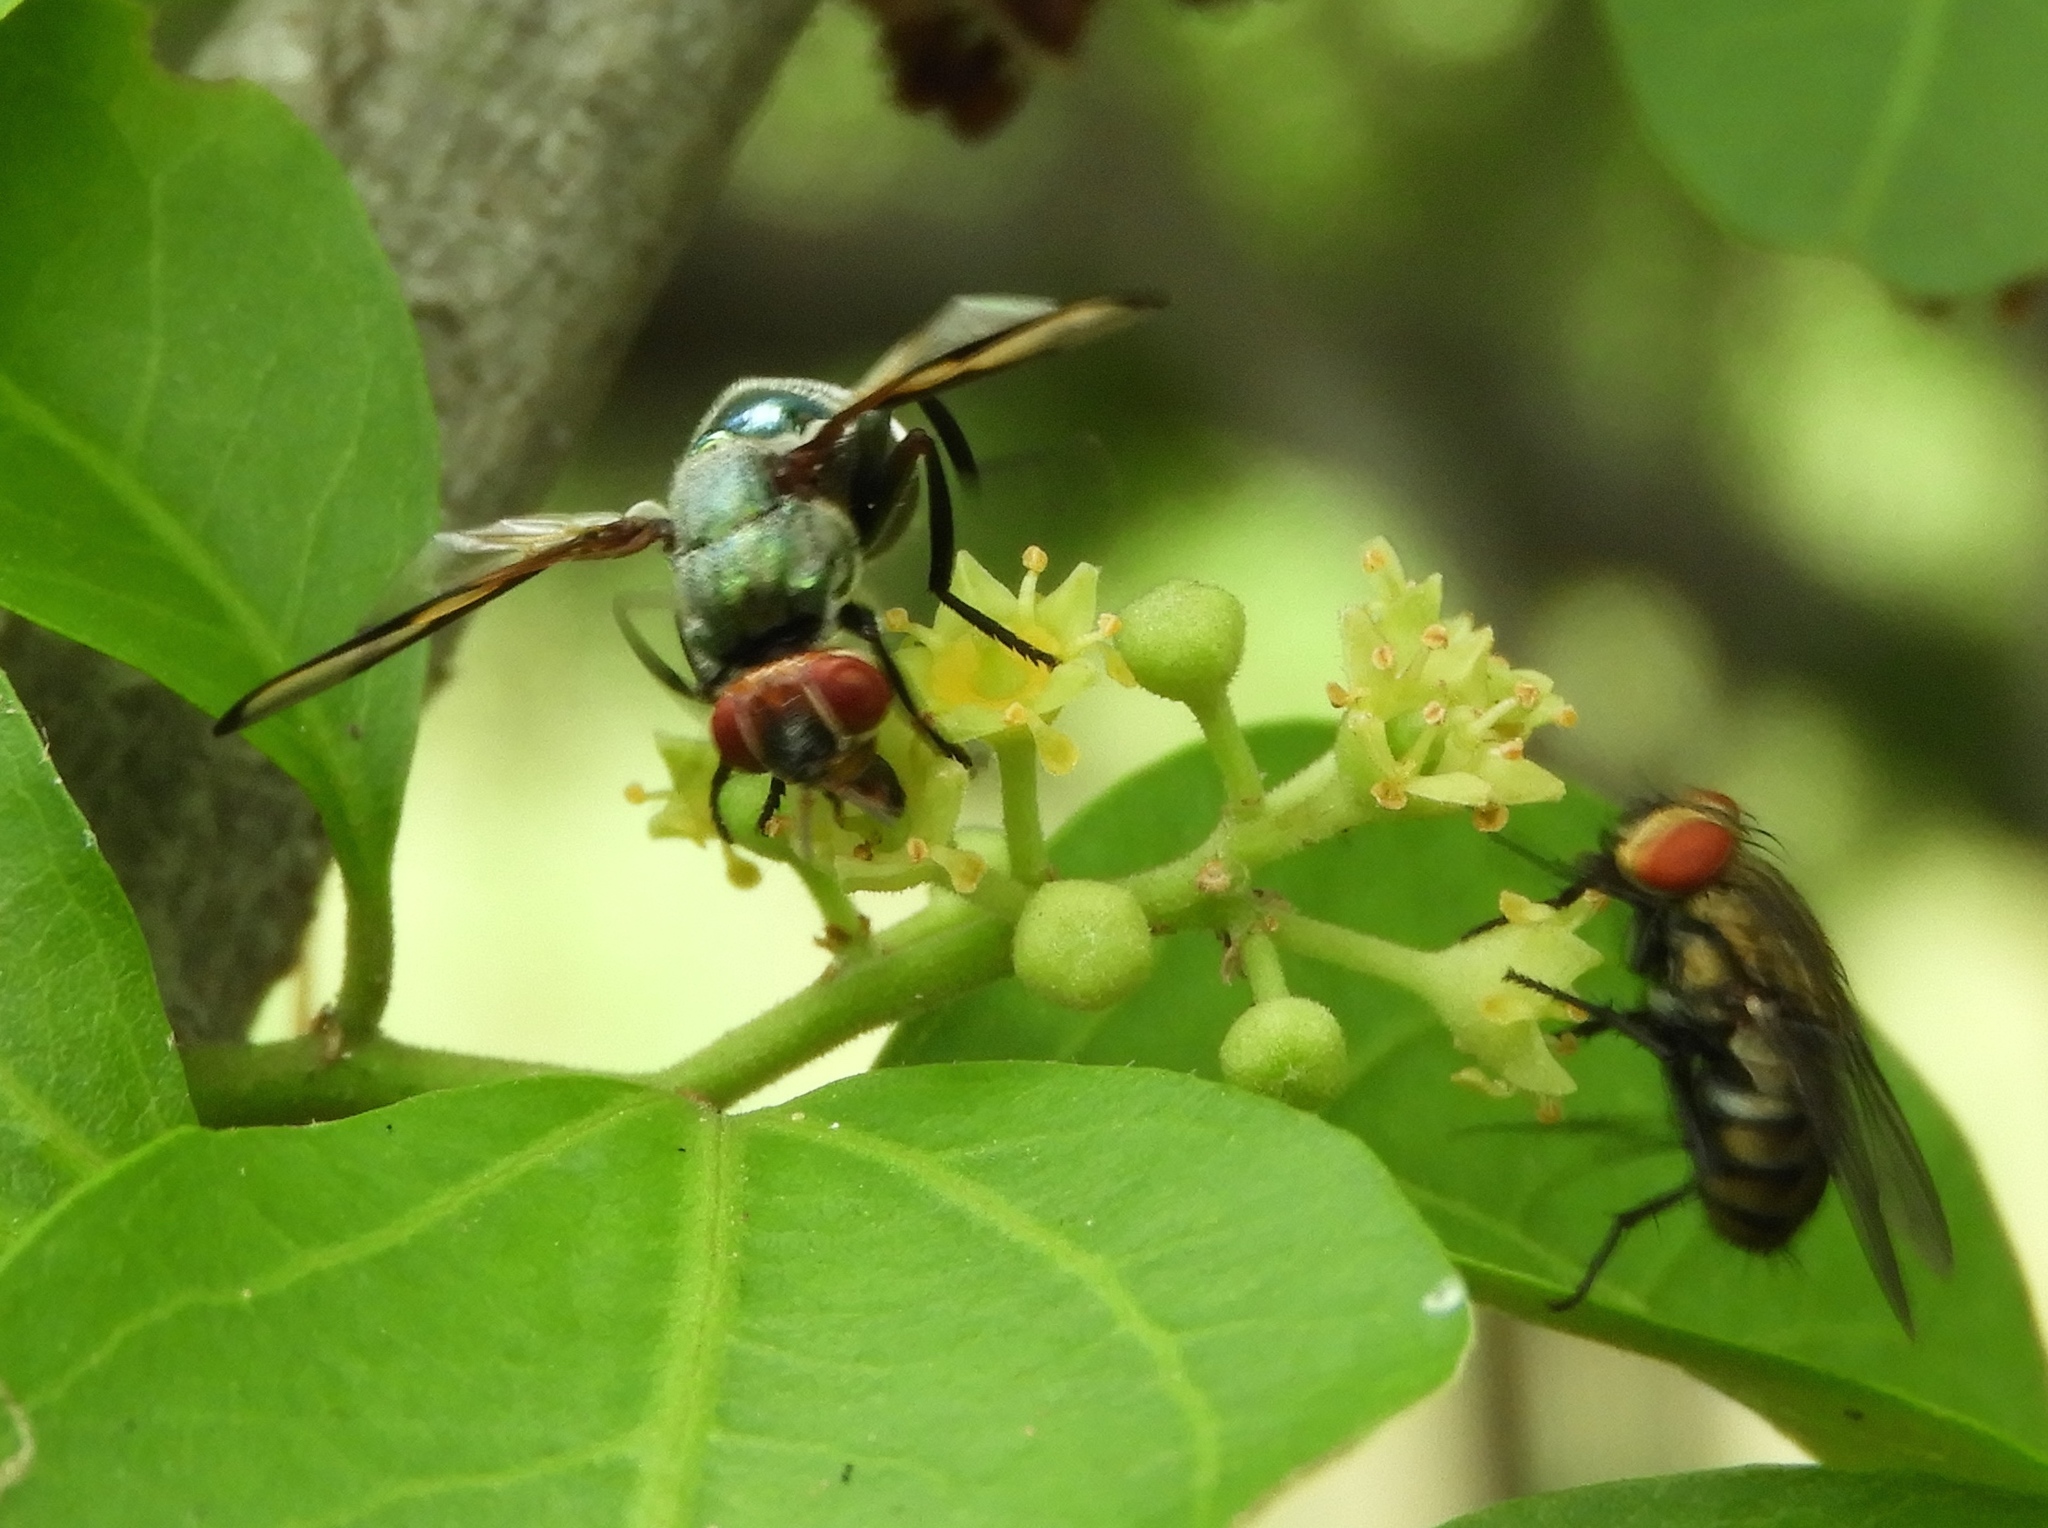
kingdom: Animalia
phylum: Arthropoda
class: Insecta
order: Diptera
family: Platystomatidae
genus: Senopterina
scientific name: Senopterina
